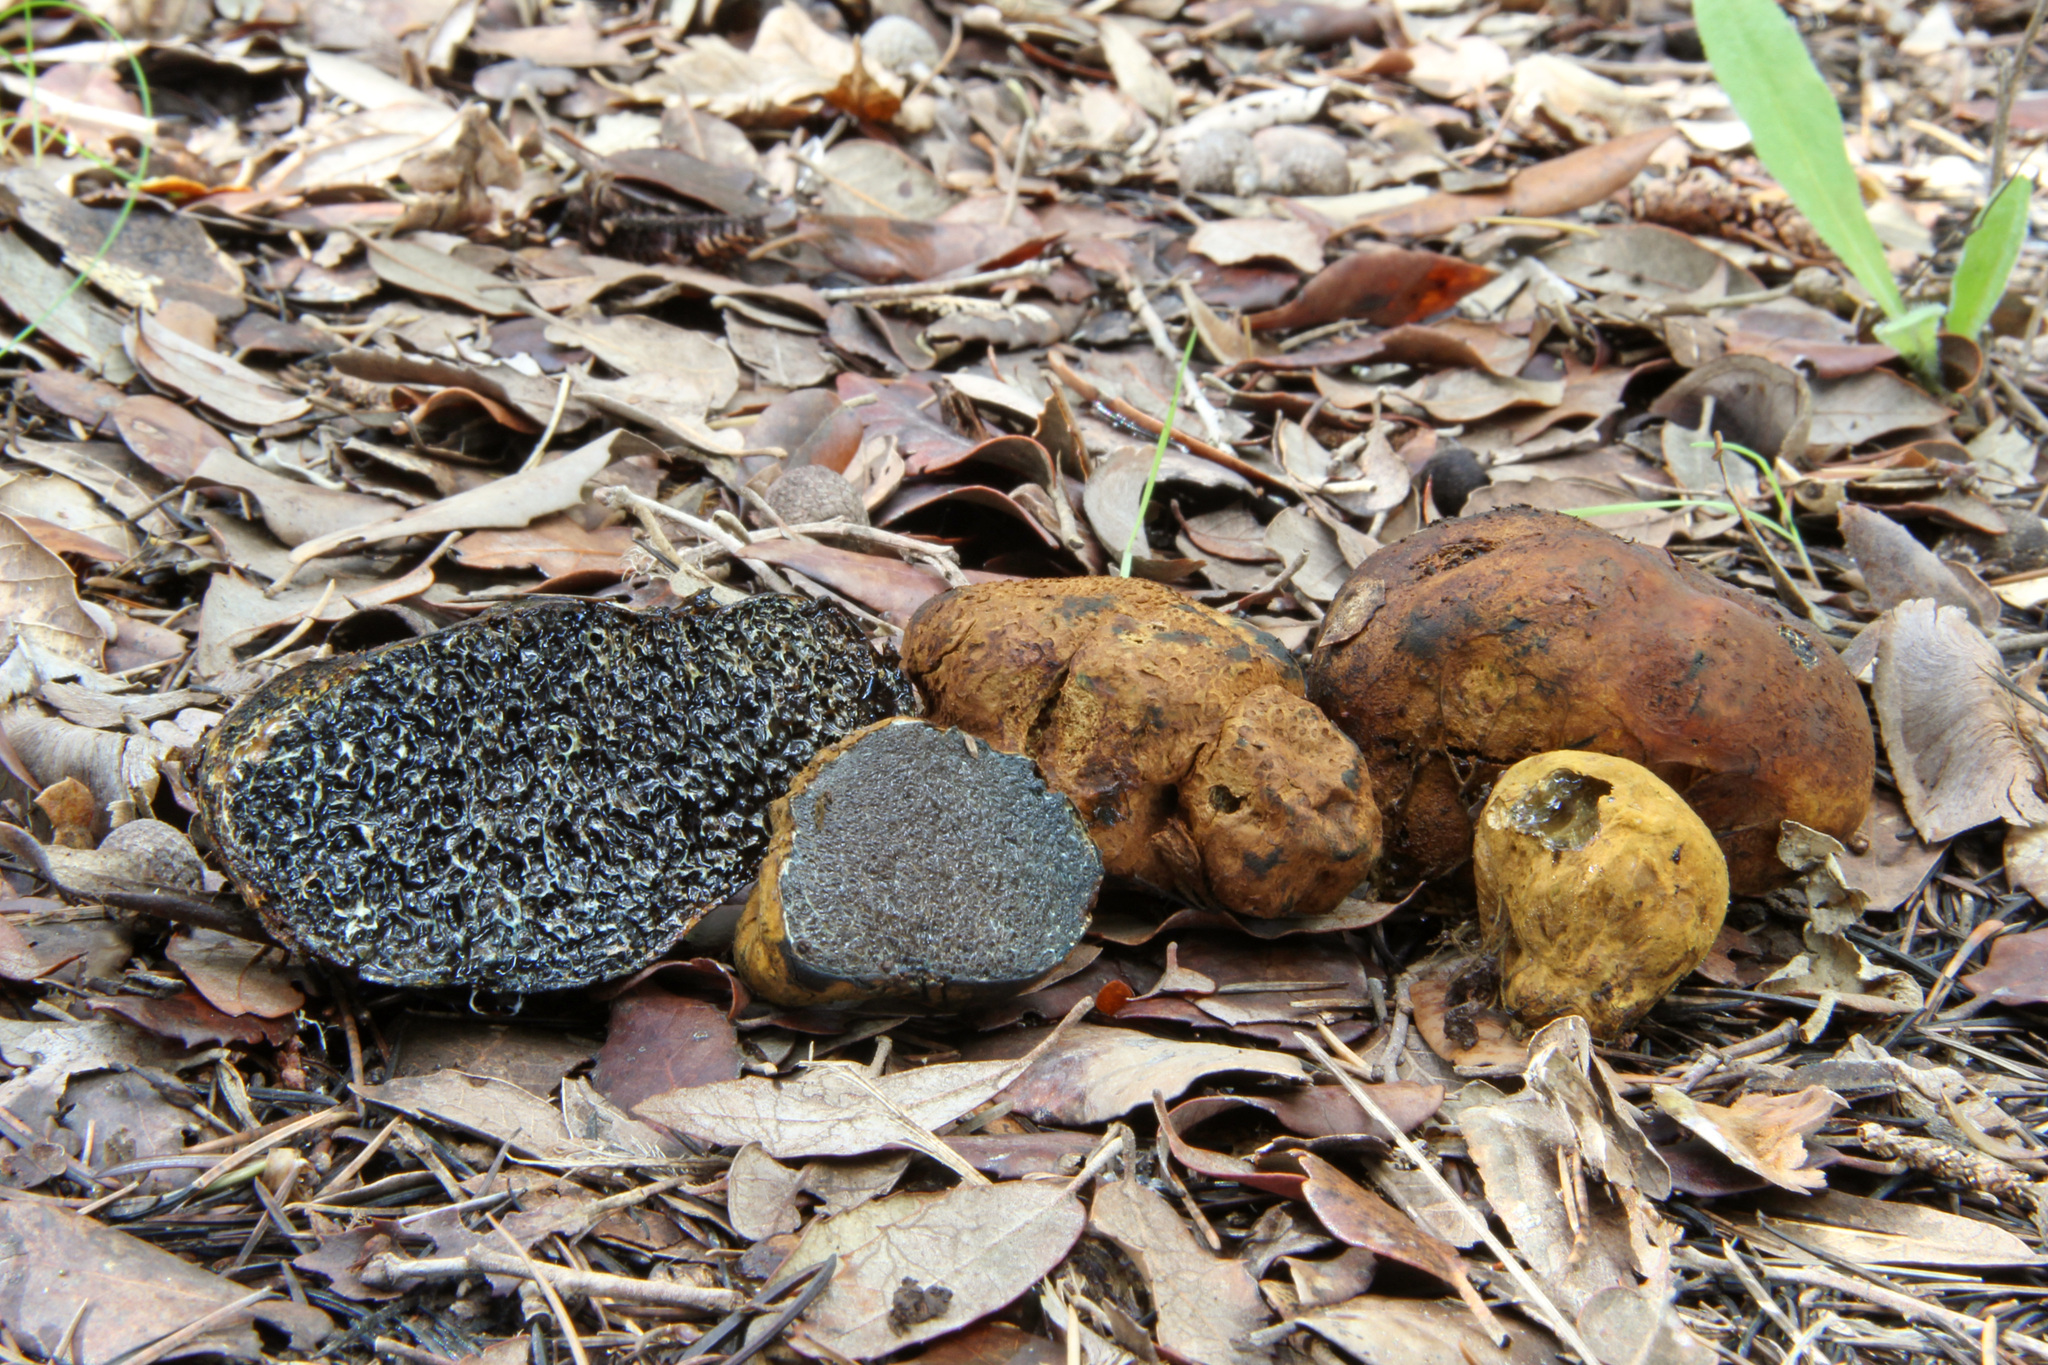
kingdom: Fungi
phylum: Basidiomycota
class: Agaricomycetes
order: Boletales
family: Paxillaceae
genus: Melanogaster
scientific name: Melanogaster broomeanus
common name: Bath truffle
